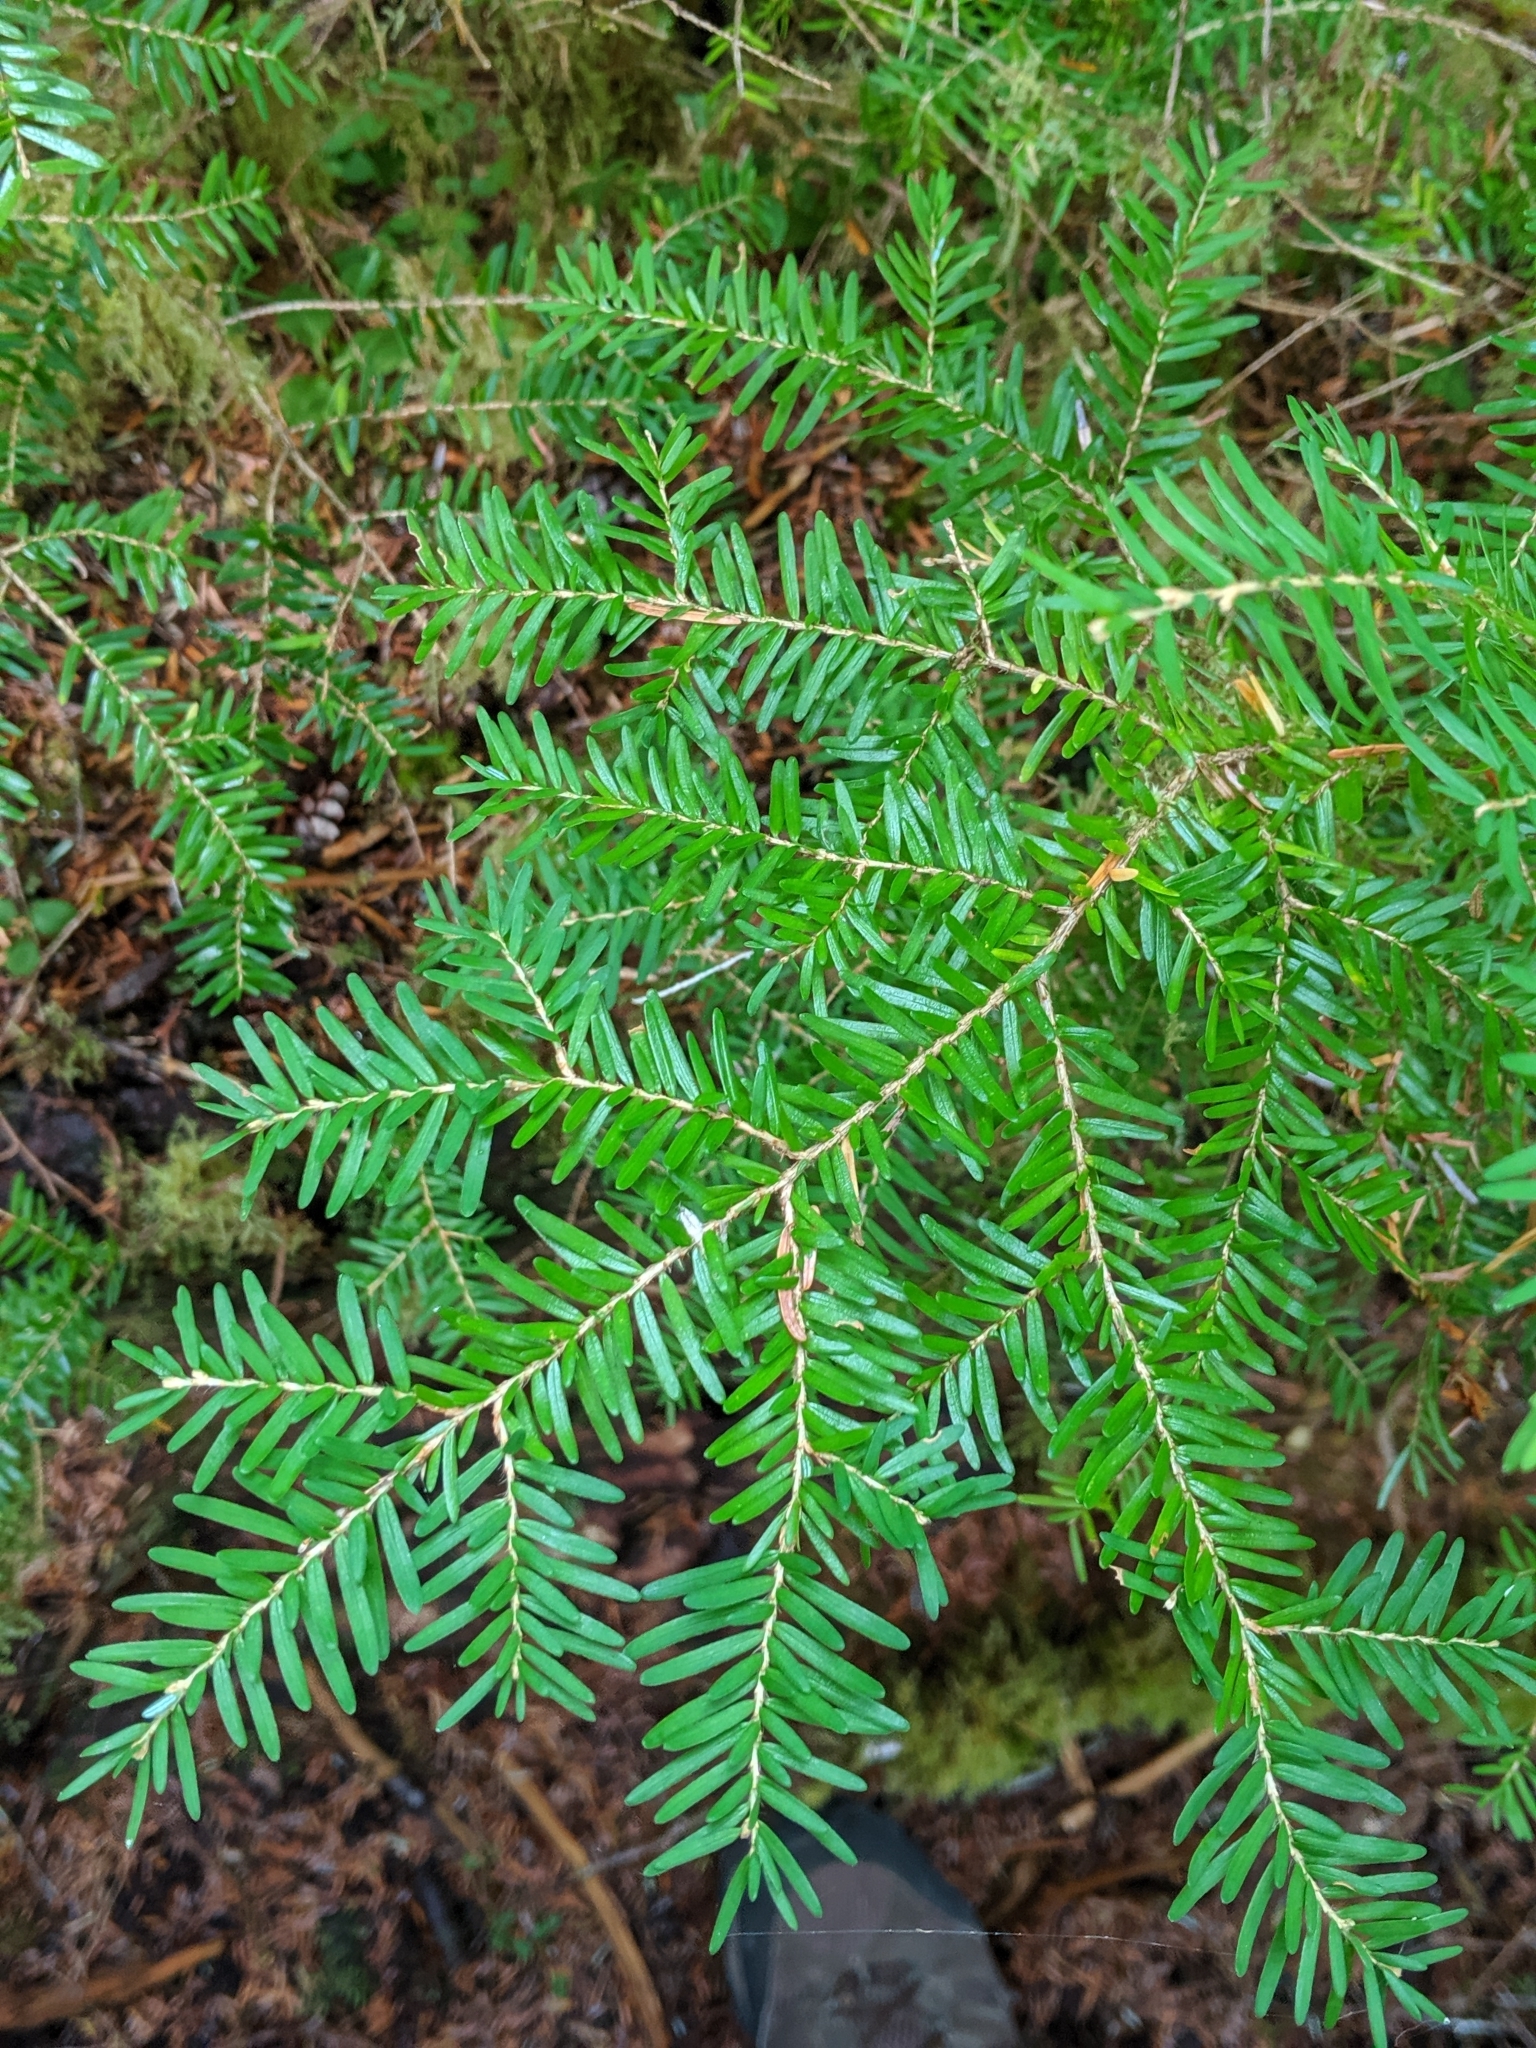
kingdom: Plantae
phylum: Tracheophyta
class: Pinopsida
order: Pinales
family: Pinaceae
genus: Tsuga
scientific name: Tsuga heterophylla
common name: Western hemlock
